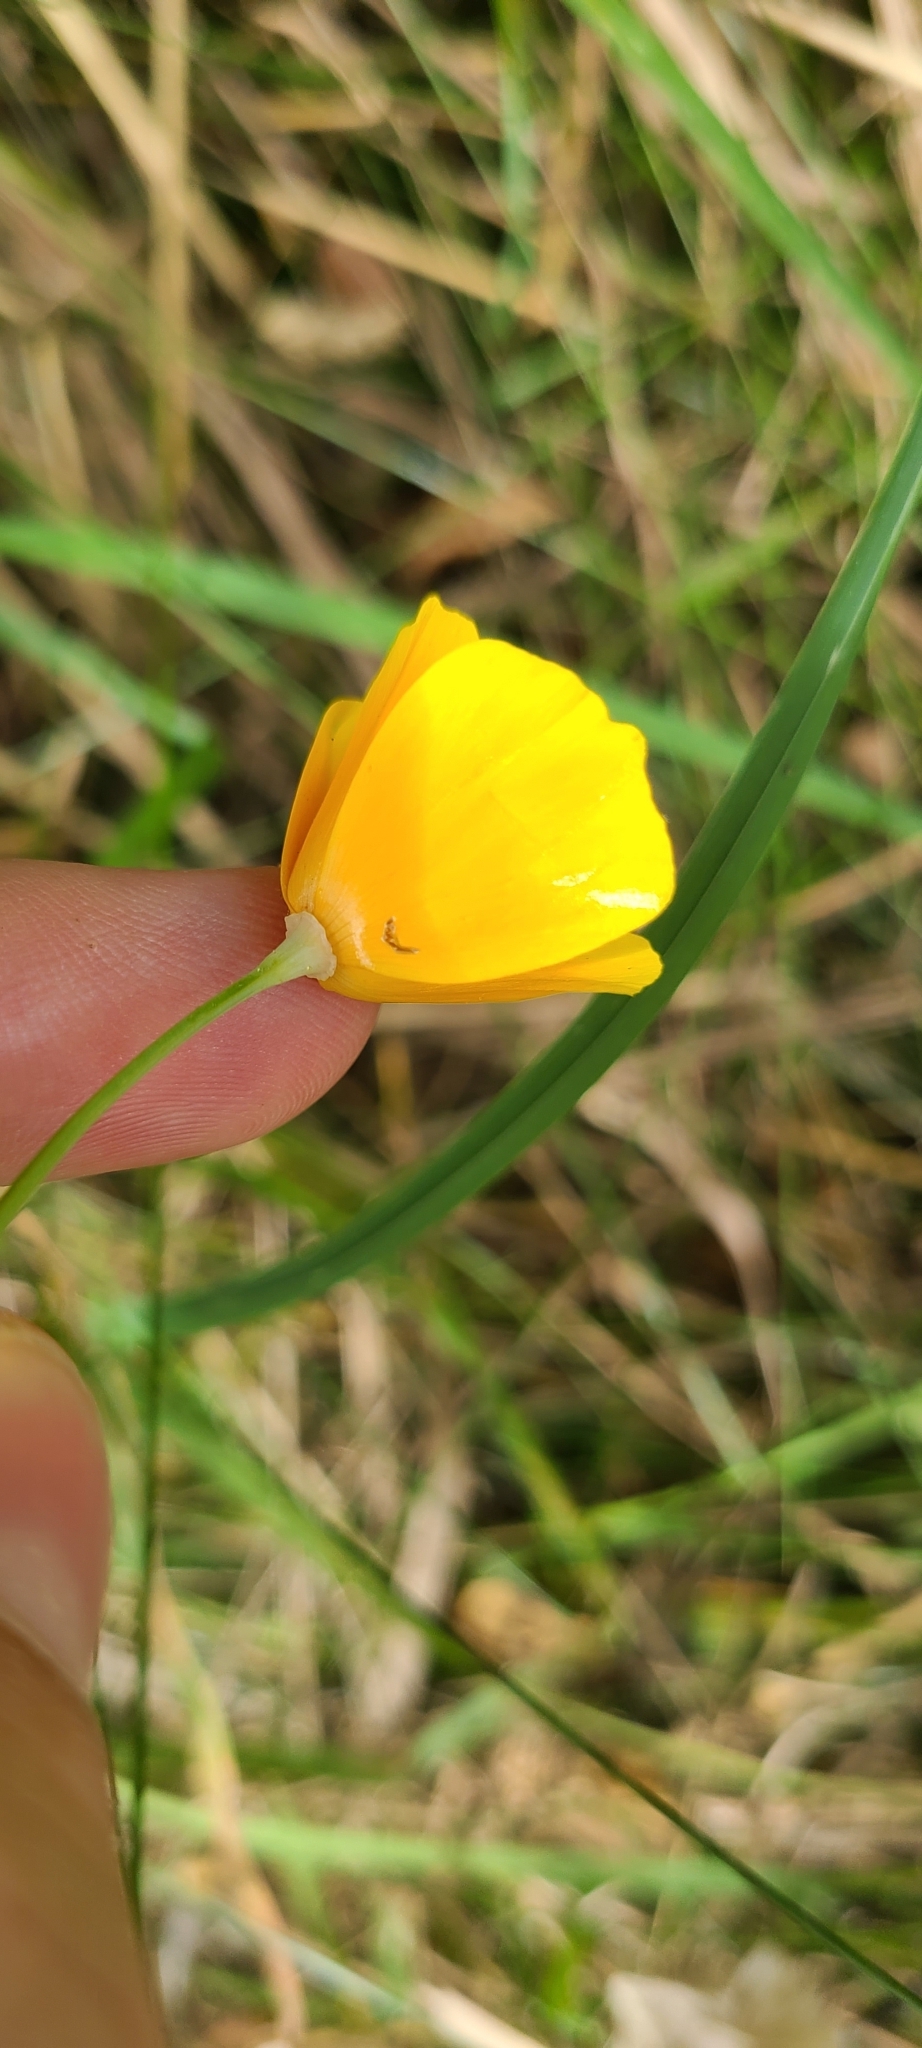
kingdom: Plantae
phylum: Tracheophyta
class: Magnoliopsida
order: Ranunculales
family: Papaveraceae
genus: Eschscholzia
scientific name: Eschscholzia californica
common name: California poppy
